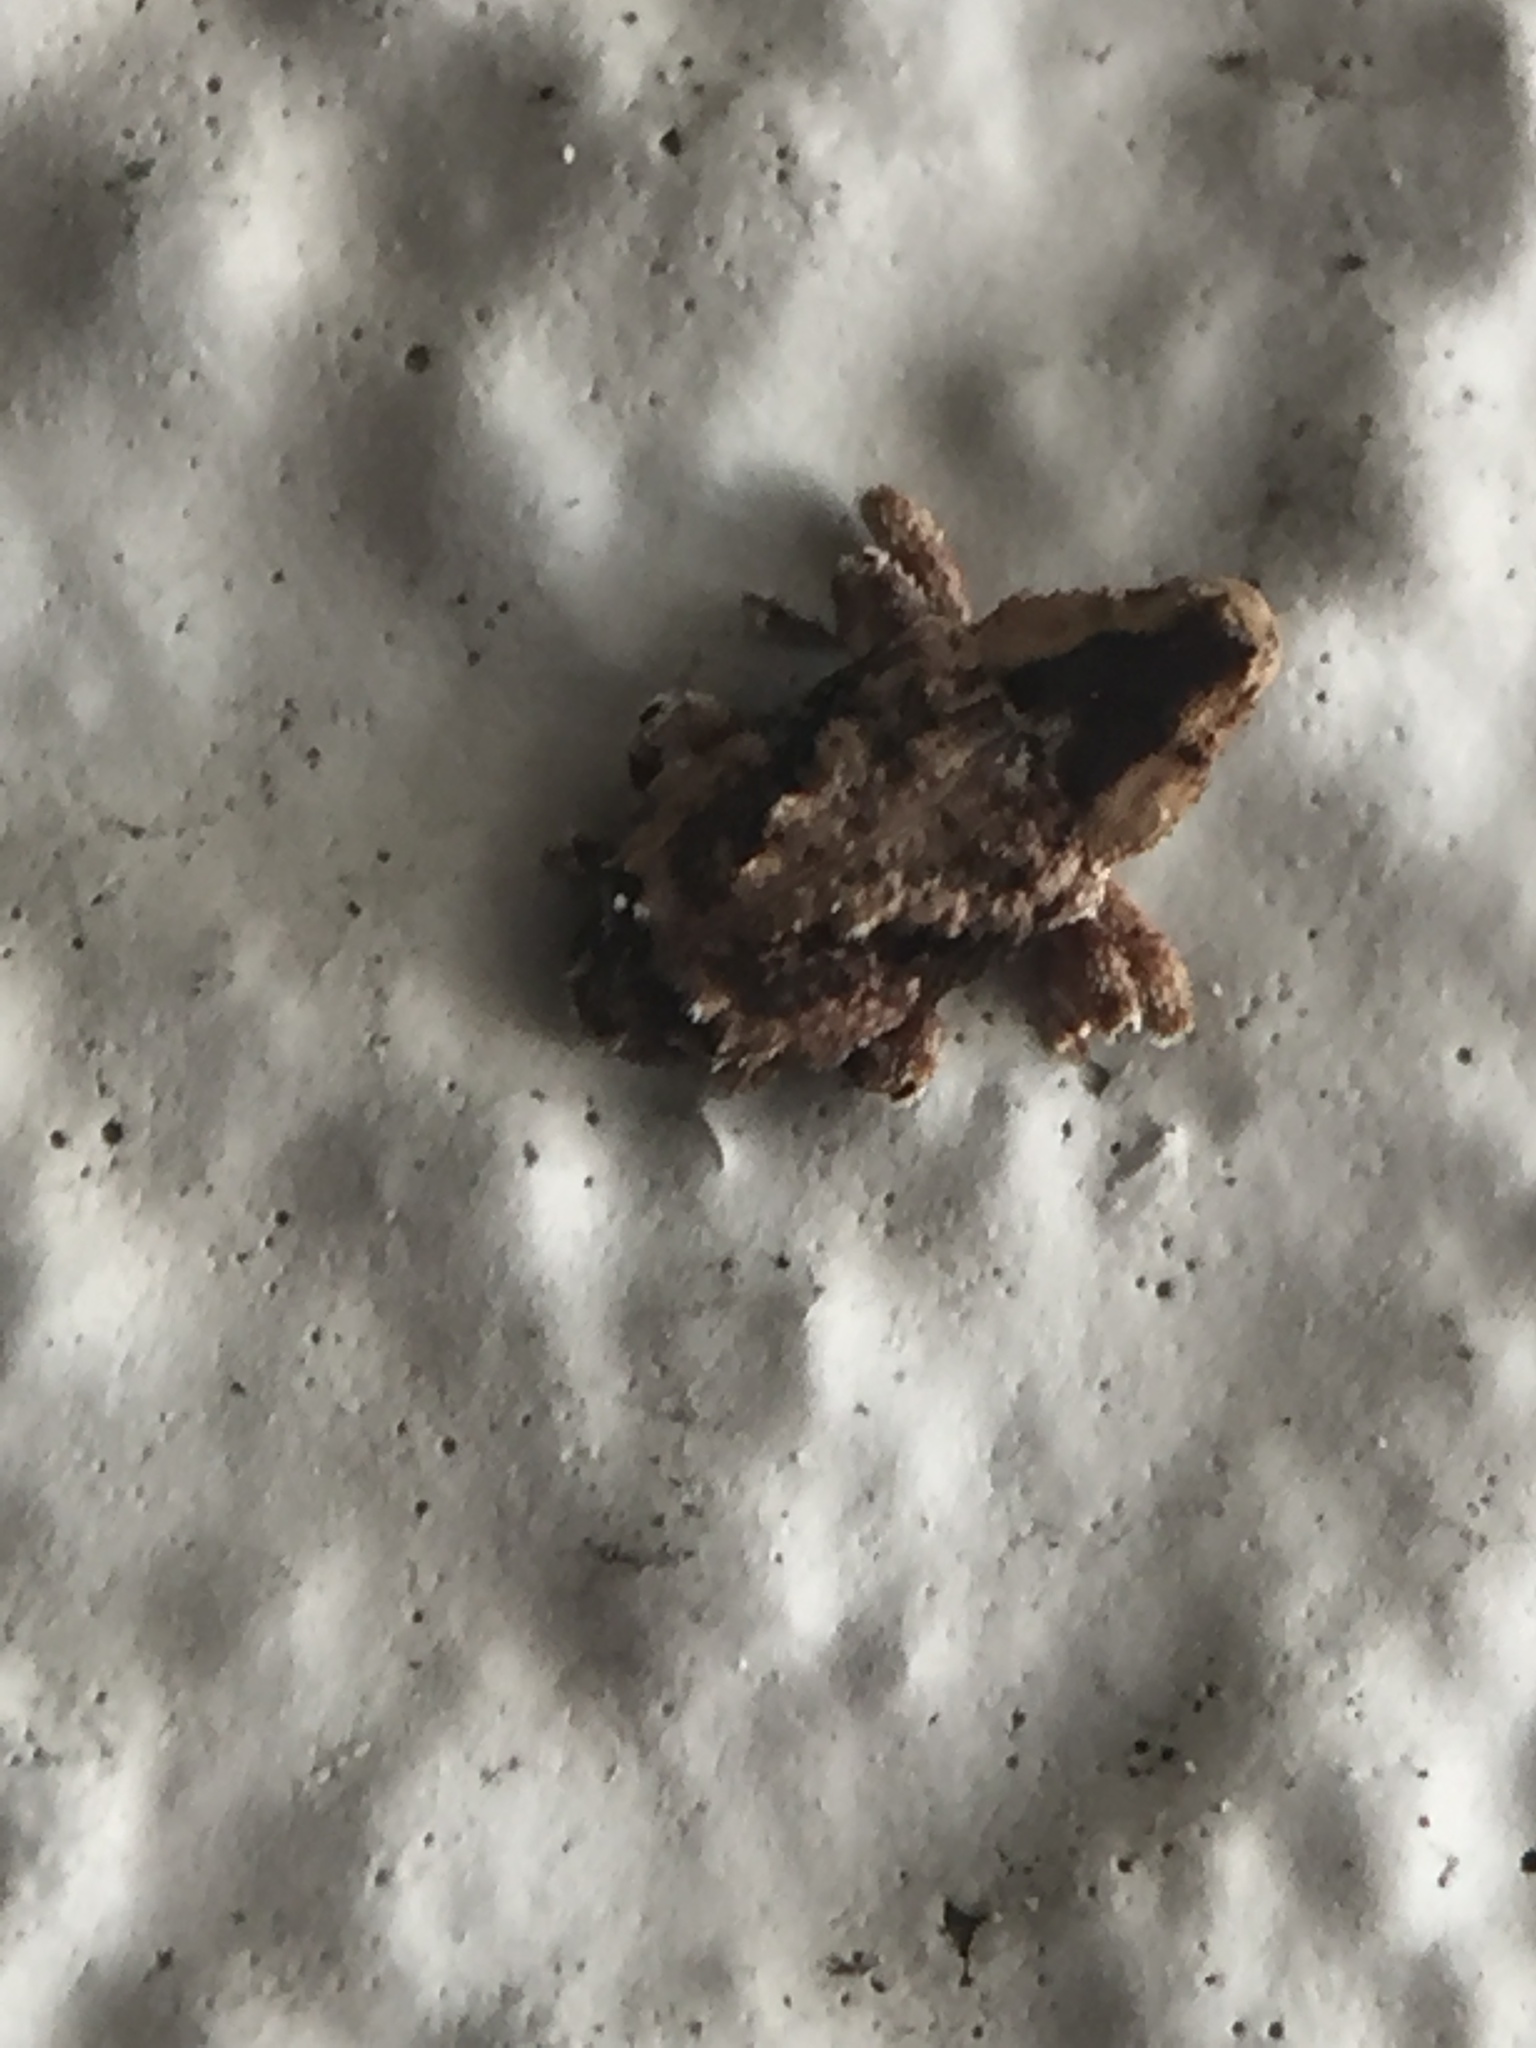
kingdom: Animalia
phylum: Arthropoda
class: Insecta
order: Coleoptera
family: Curculionidae
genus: Mecistostylus
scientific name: Mecistostylus douei
